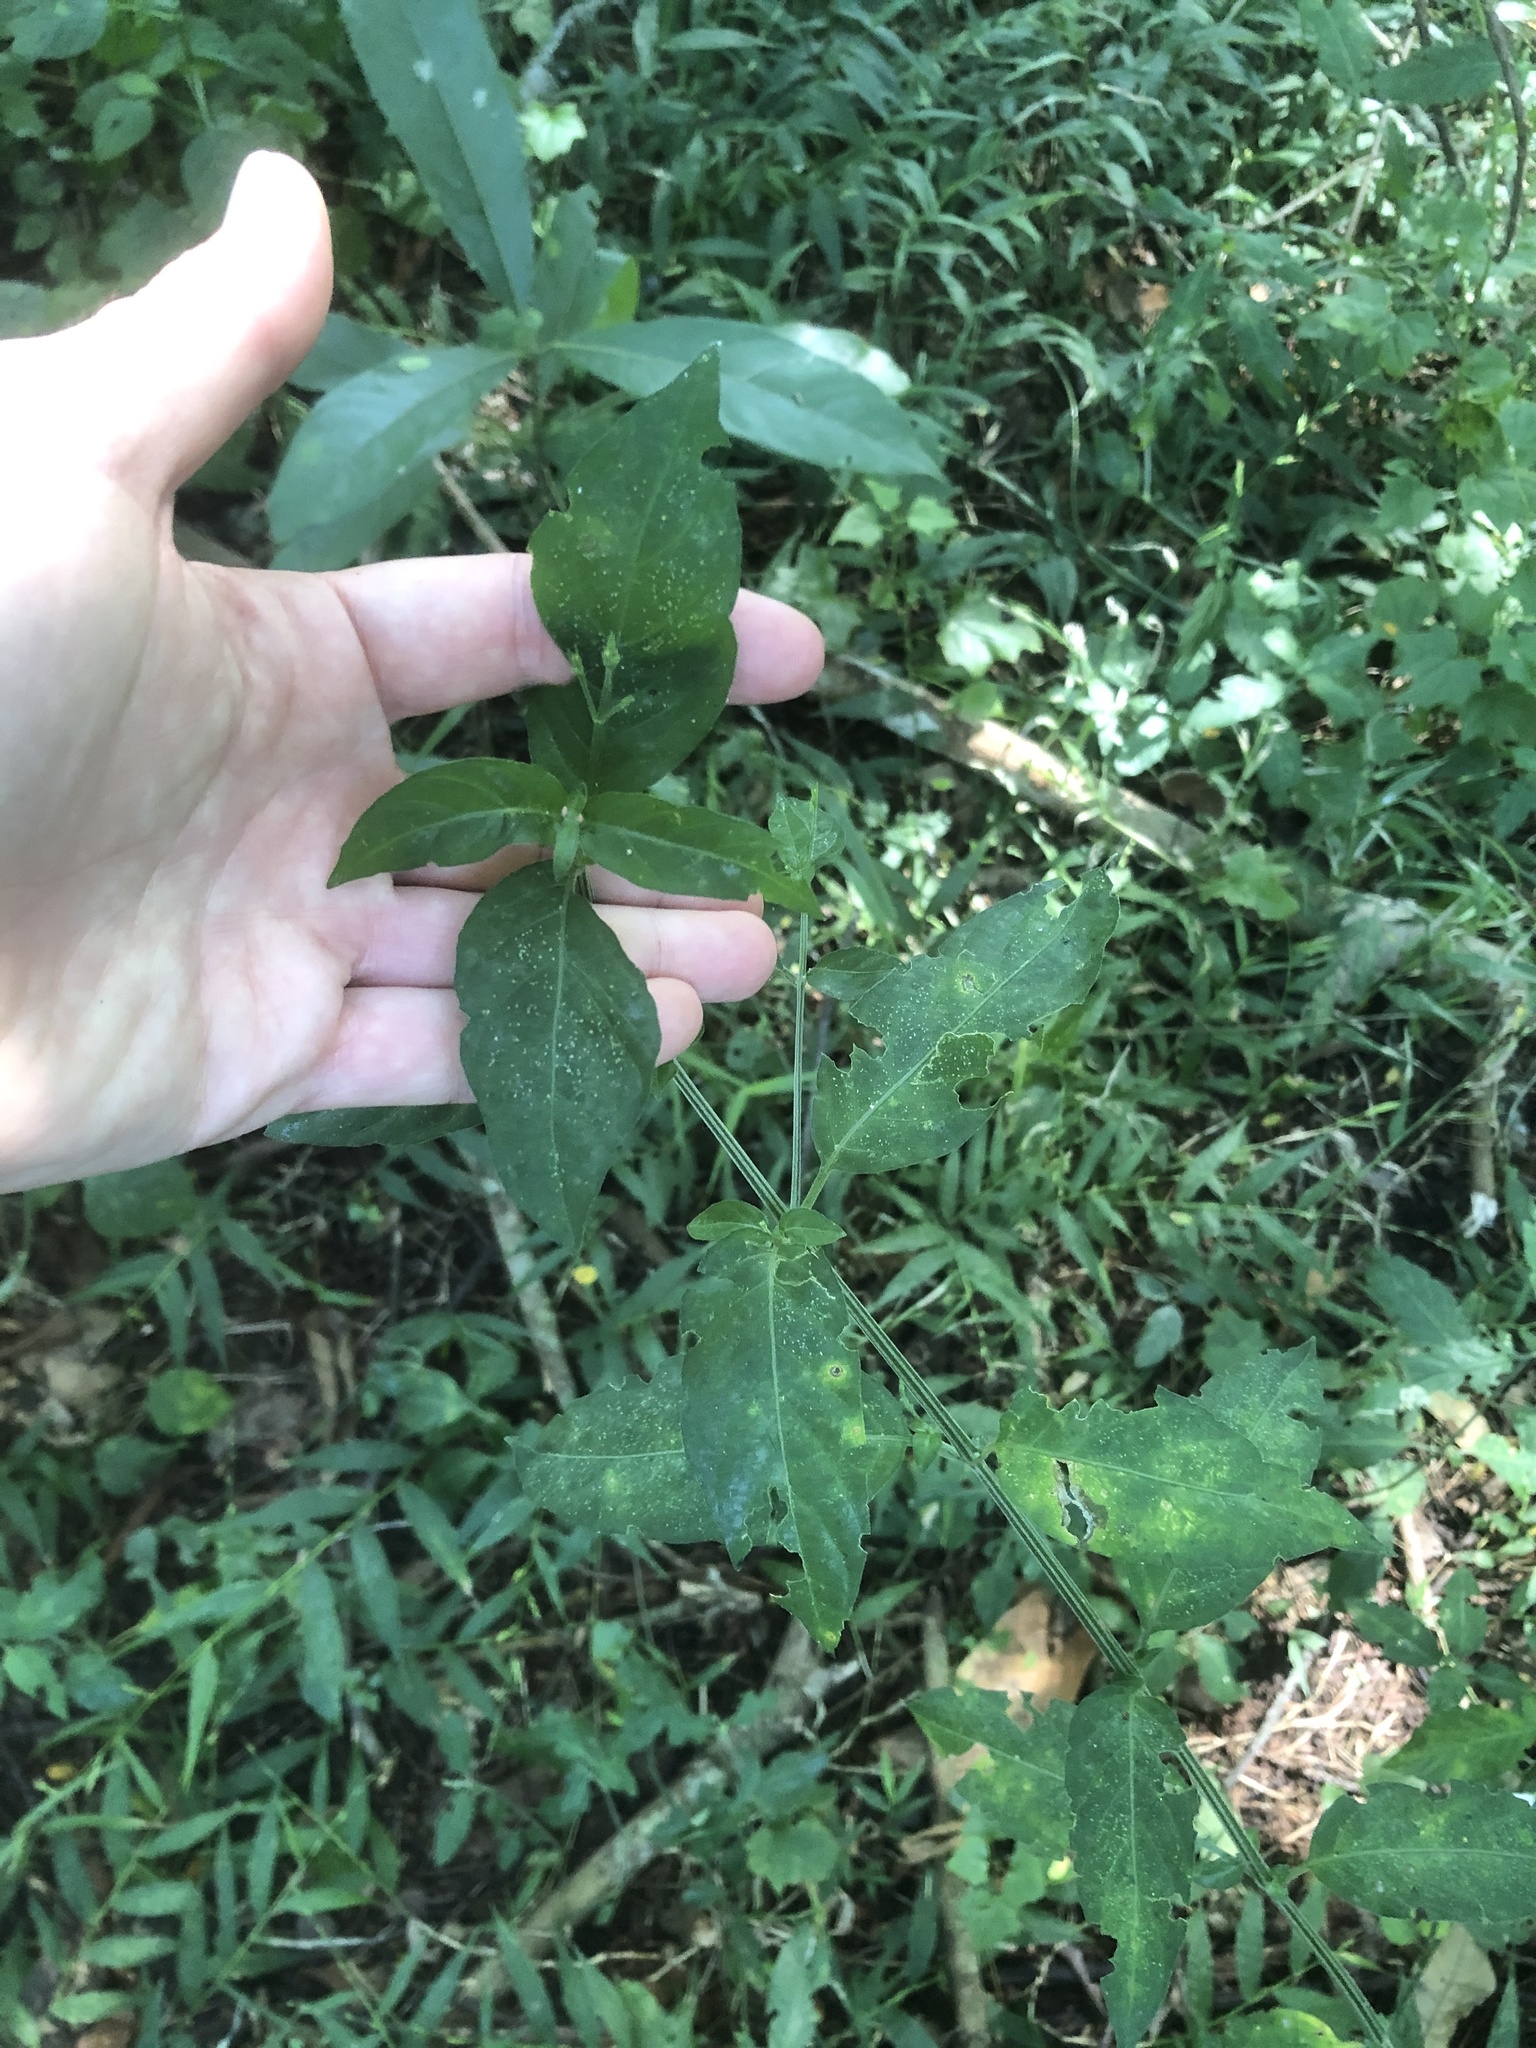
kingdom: Plantae
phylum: Tracheophyta
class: Magnoliopsida
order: Lamiales
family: Acanthaceae
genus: Rhinacanthus
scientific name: Rhinacanthus gracilis
